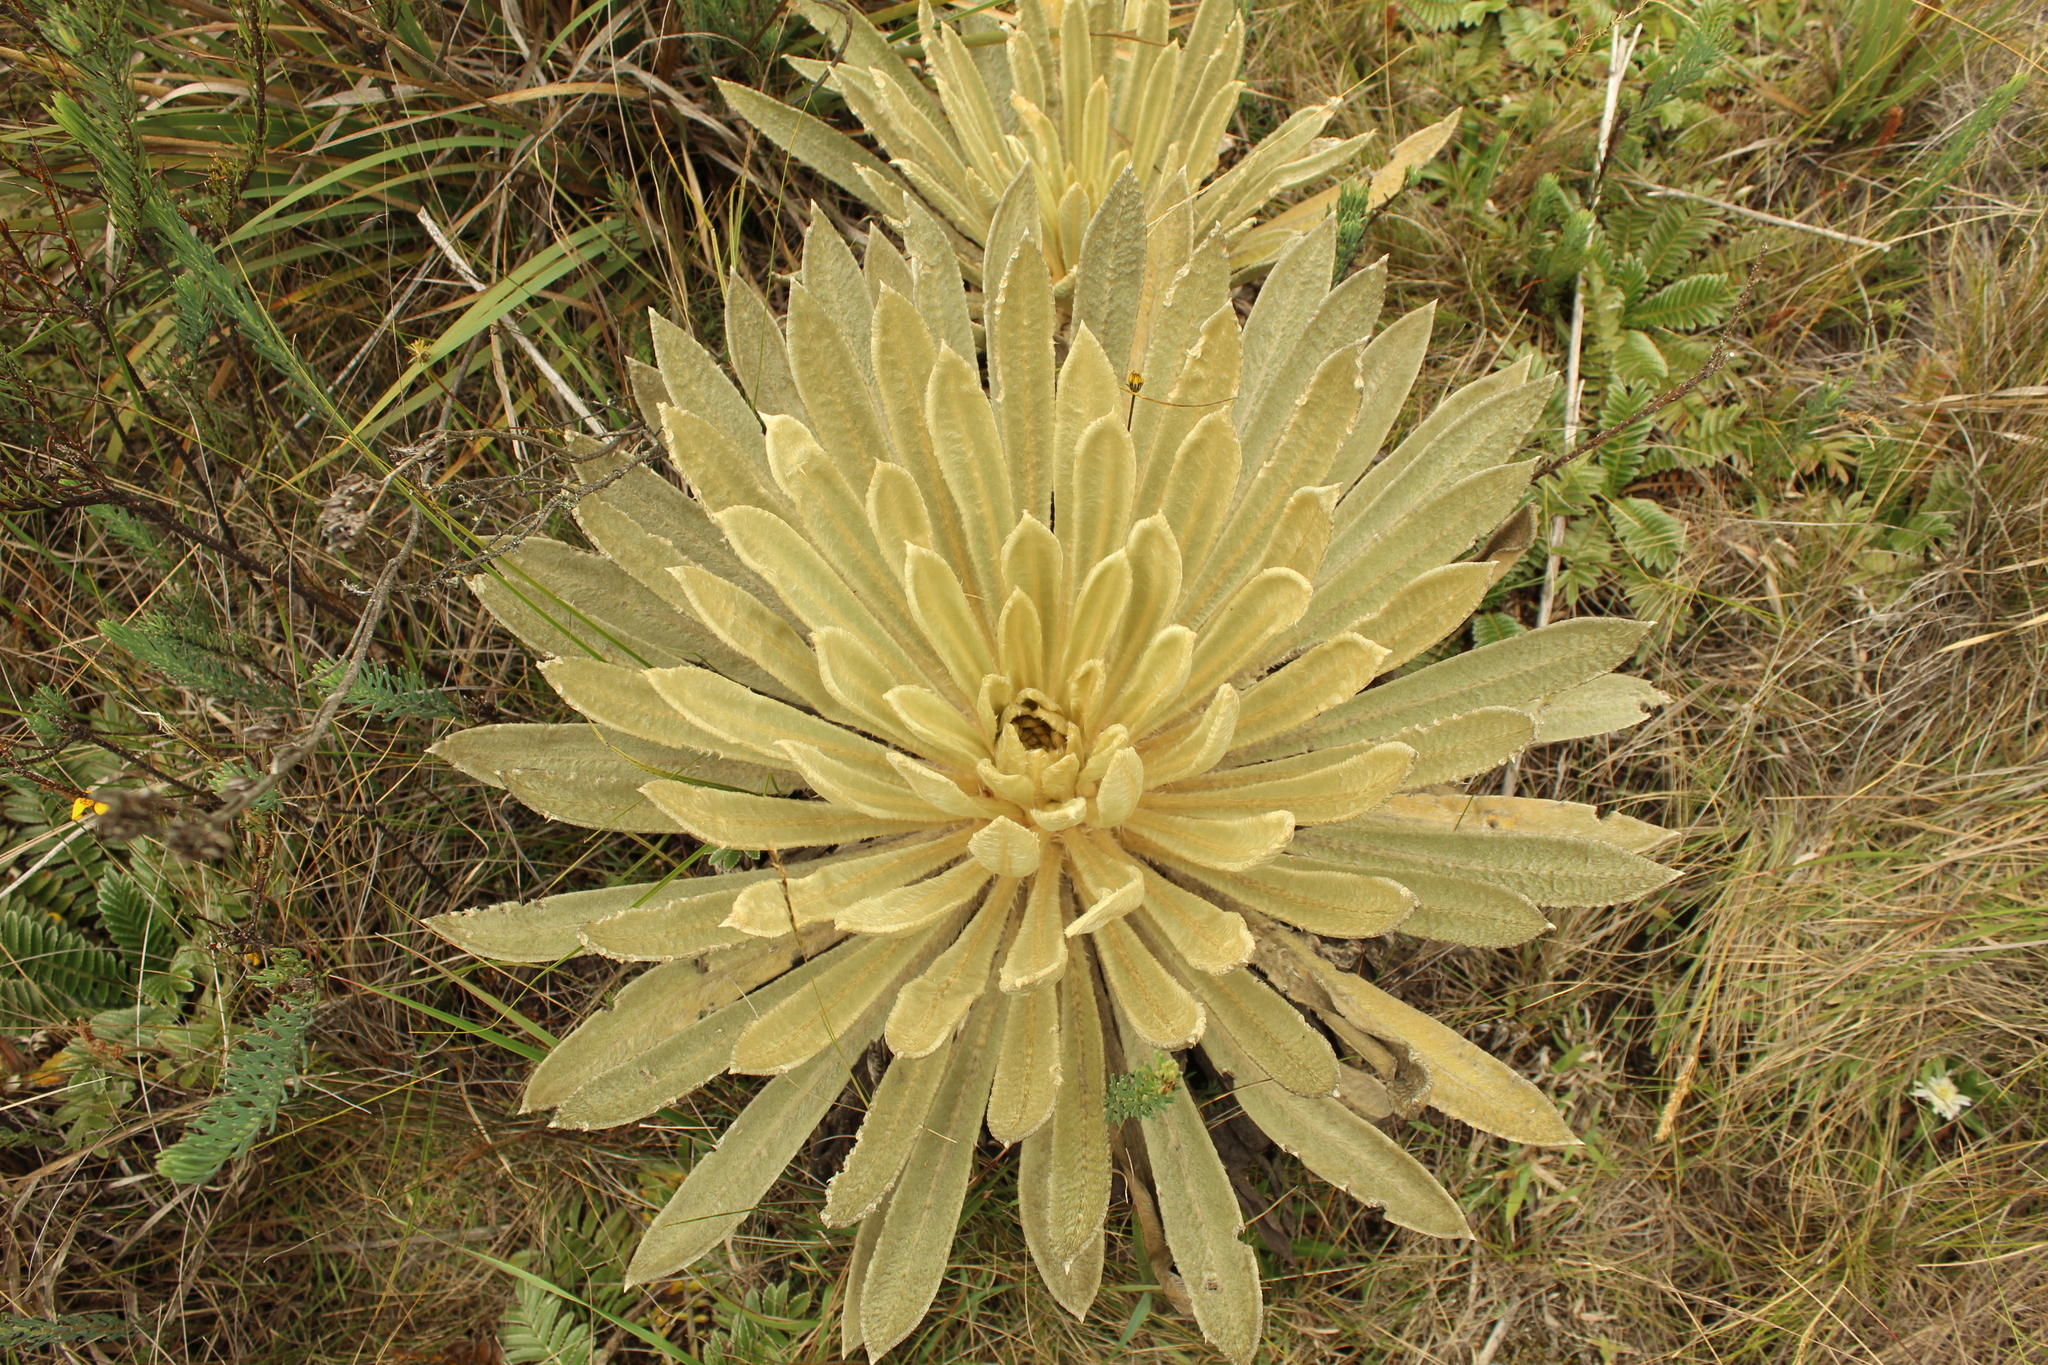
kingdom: Plantae
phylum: Tracheophyta
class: Magnoliopsida
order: Asterales
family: Asteraceae
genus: Espeletia
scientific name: Espeletia muiska
